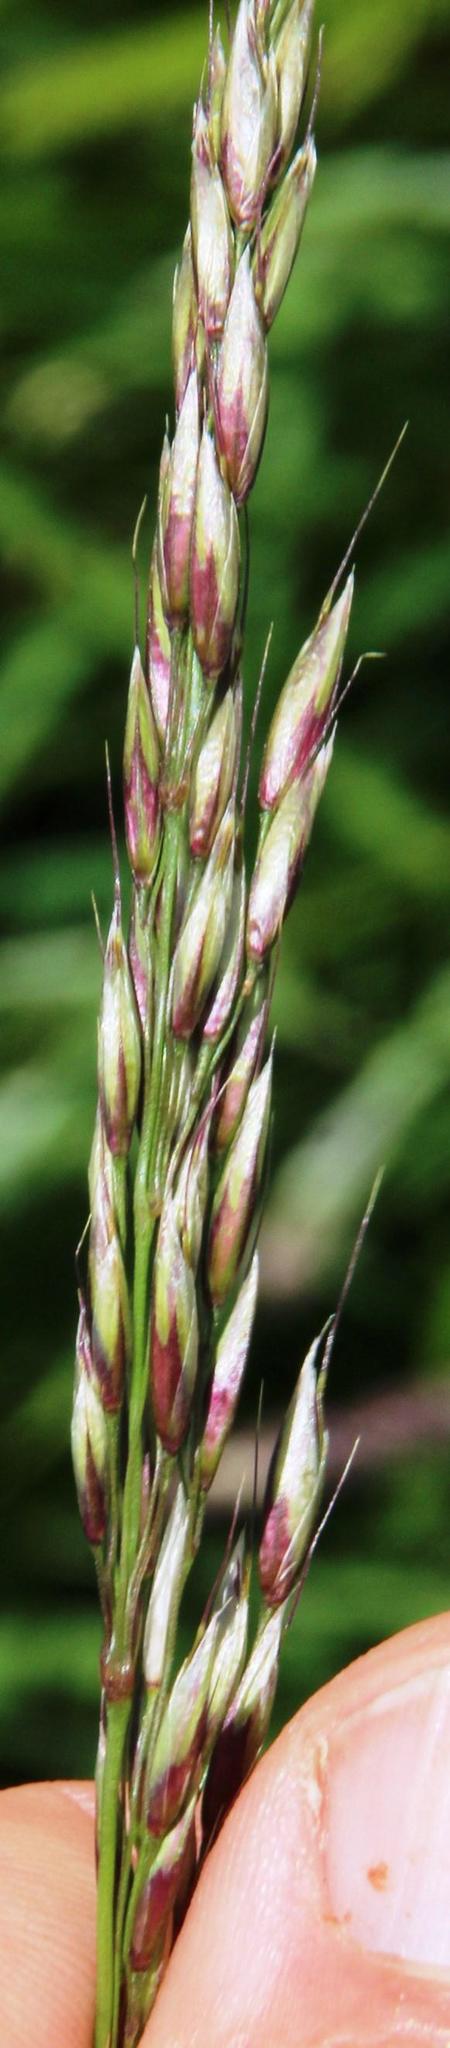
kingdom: Plantae
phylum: Tracheophyta
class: Liliopsida
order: Poales
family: Poaceae
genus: Arrhenatherum
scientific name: Arrhenatherum elatius
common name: Tall oatgrass
